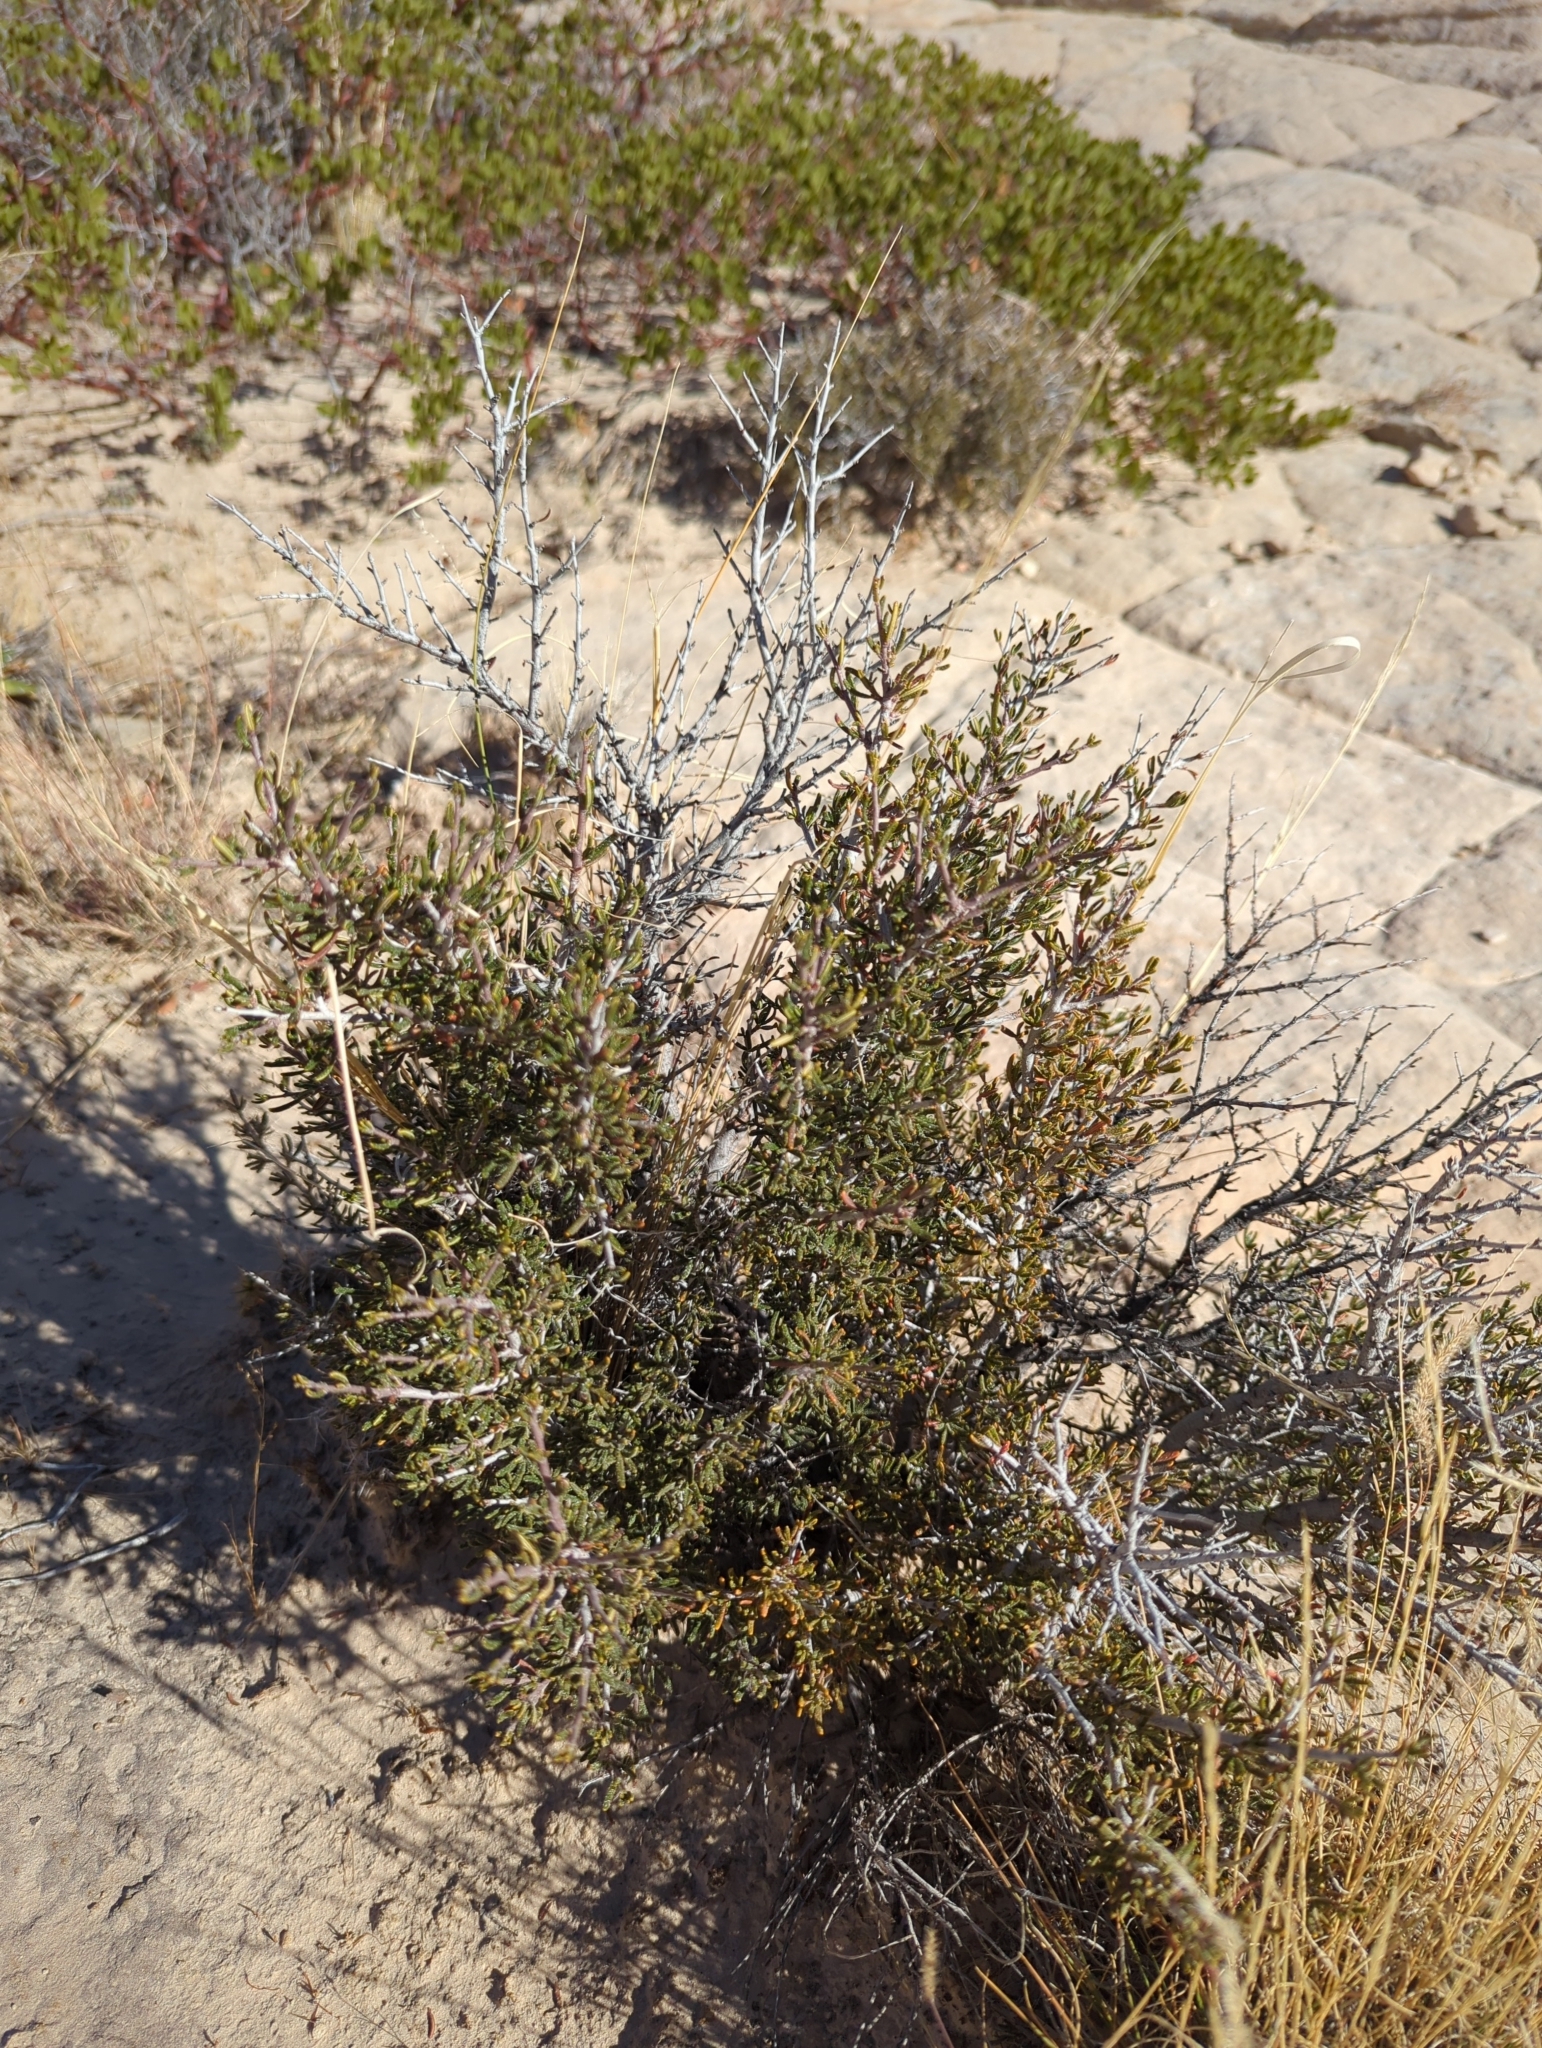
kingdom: Plantae
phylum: Tracheophyta
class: Magnoliopsida
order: Rosales
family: Rosaceae
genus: Coleogyne
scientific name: Coleogyne ramosissima
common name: Blackbrush
